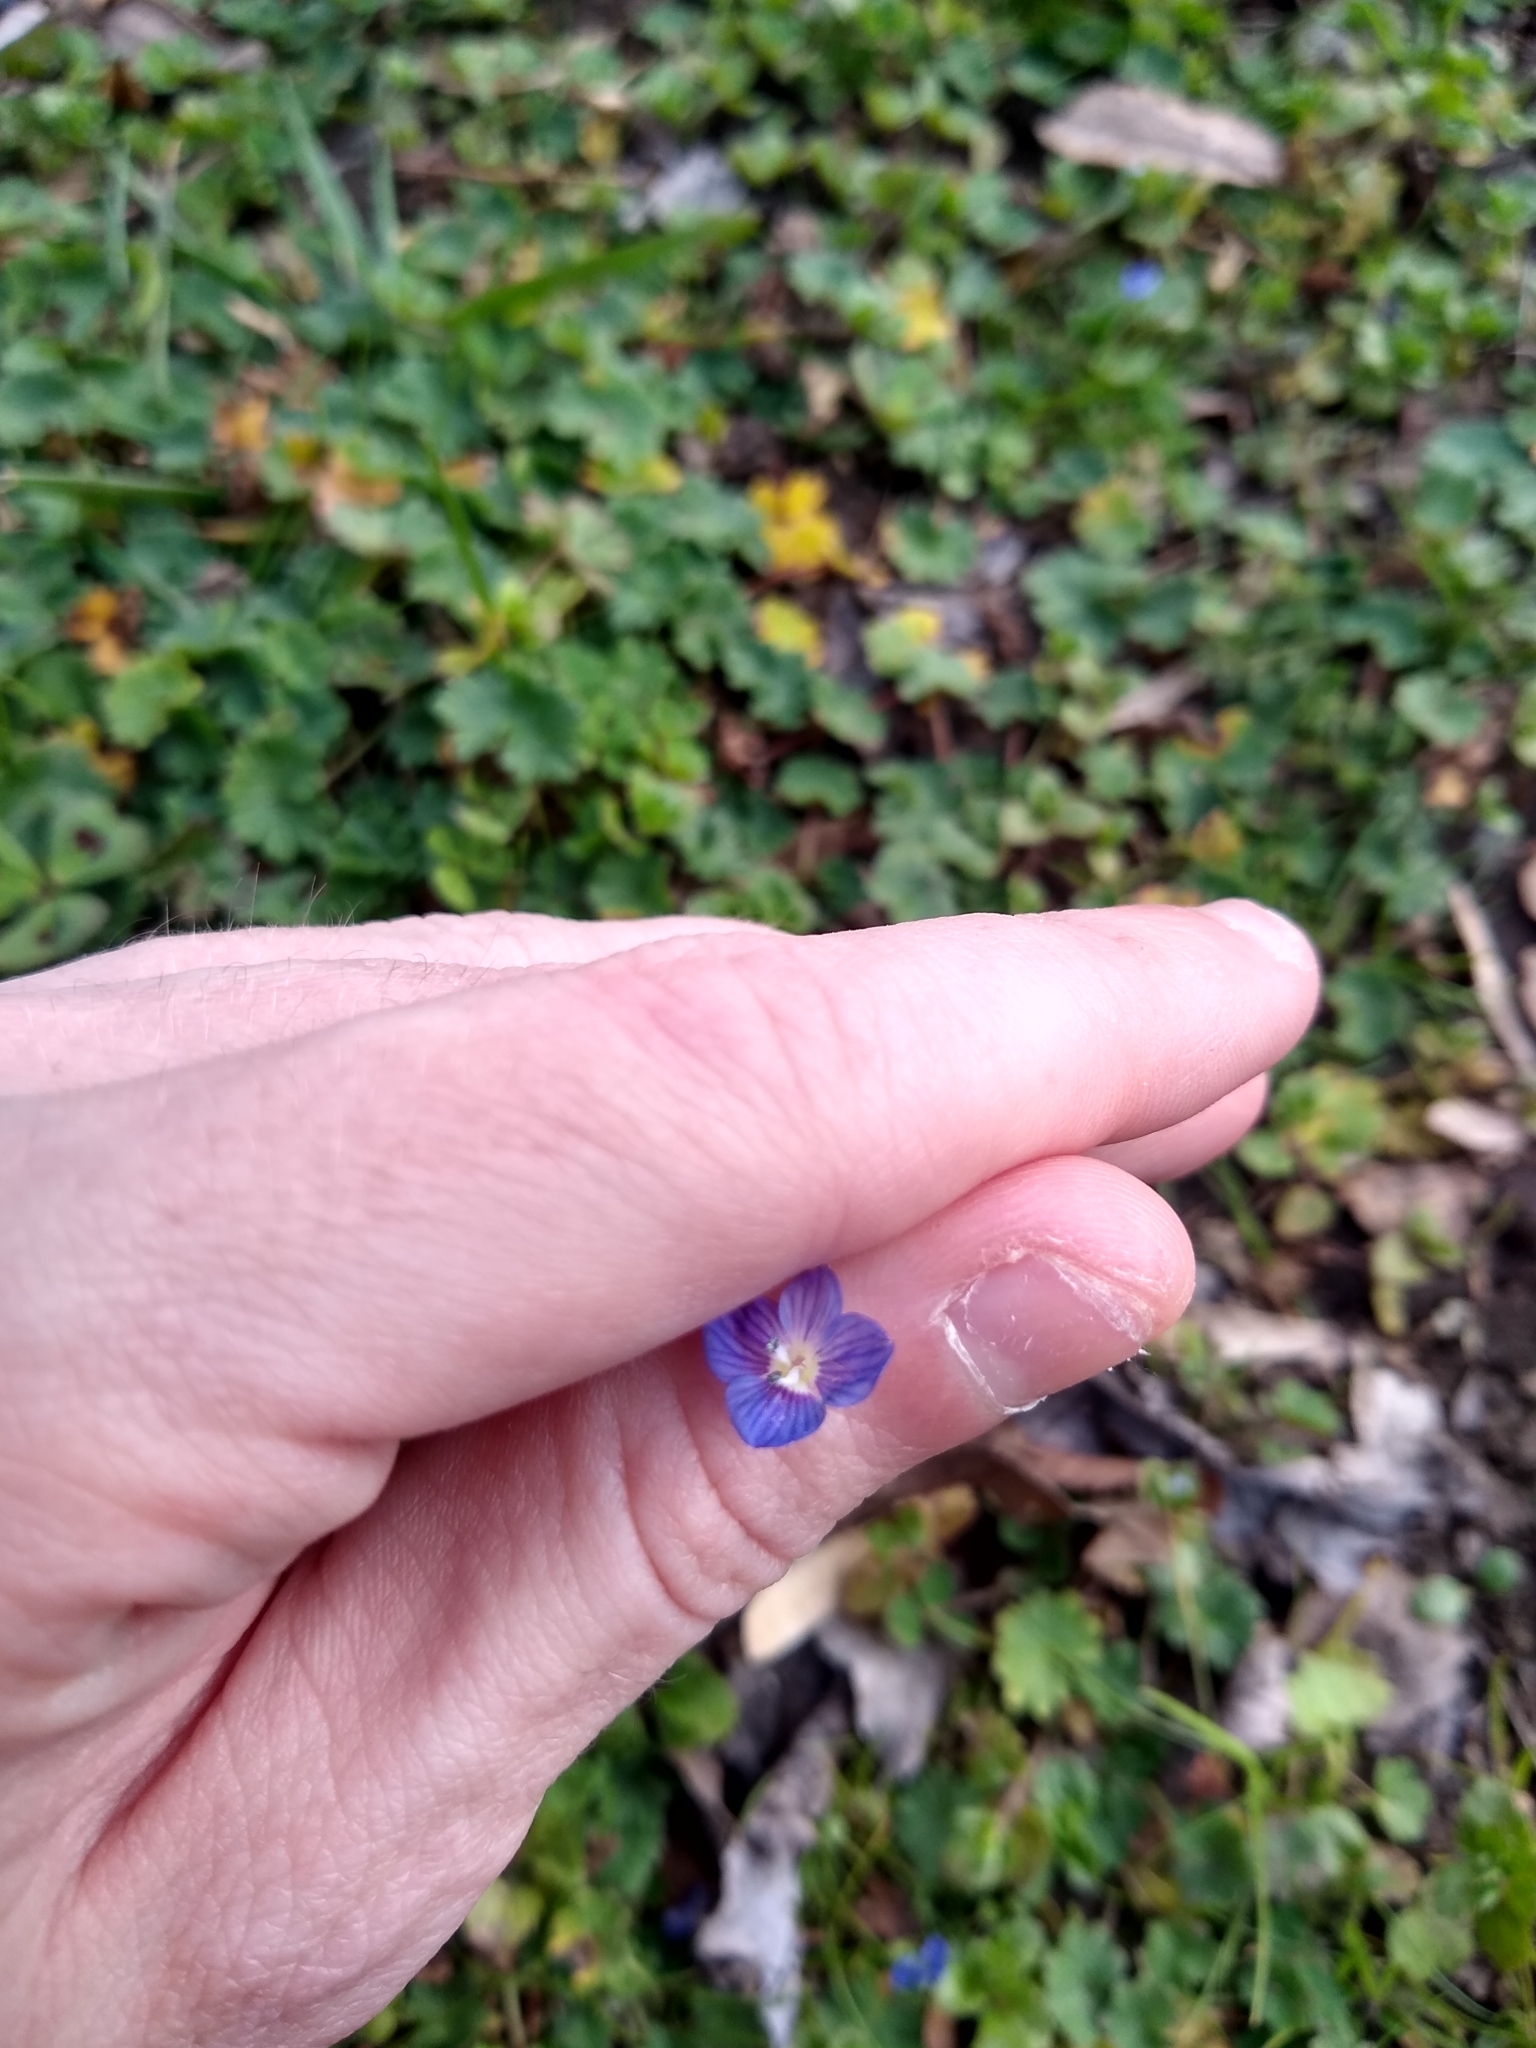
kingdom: Plantae
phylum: Tracheophyta
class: Magnoliopsida
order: Lamiales
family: Plantaginaceae
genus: Veronica
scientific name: Veronica persica
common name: Common field-speedwell
